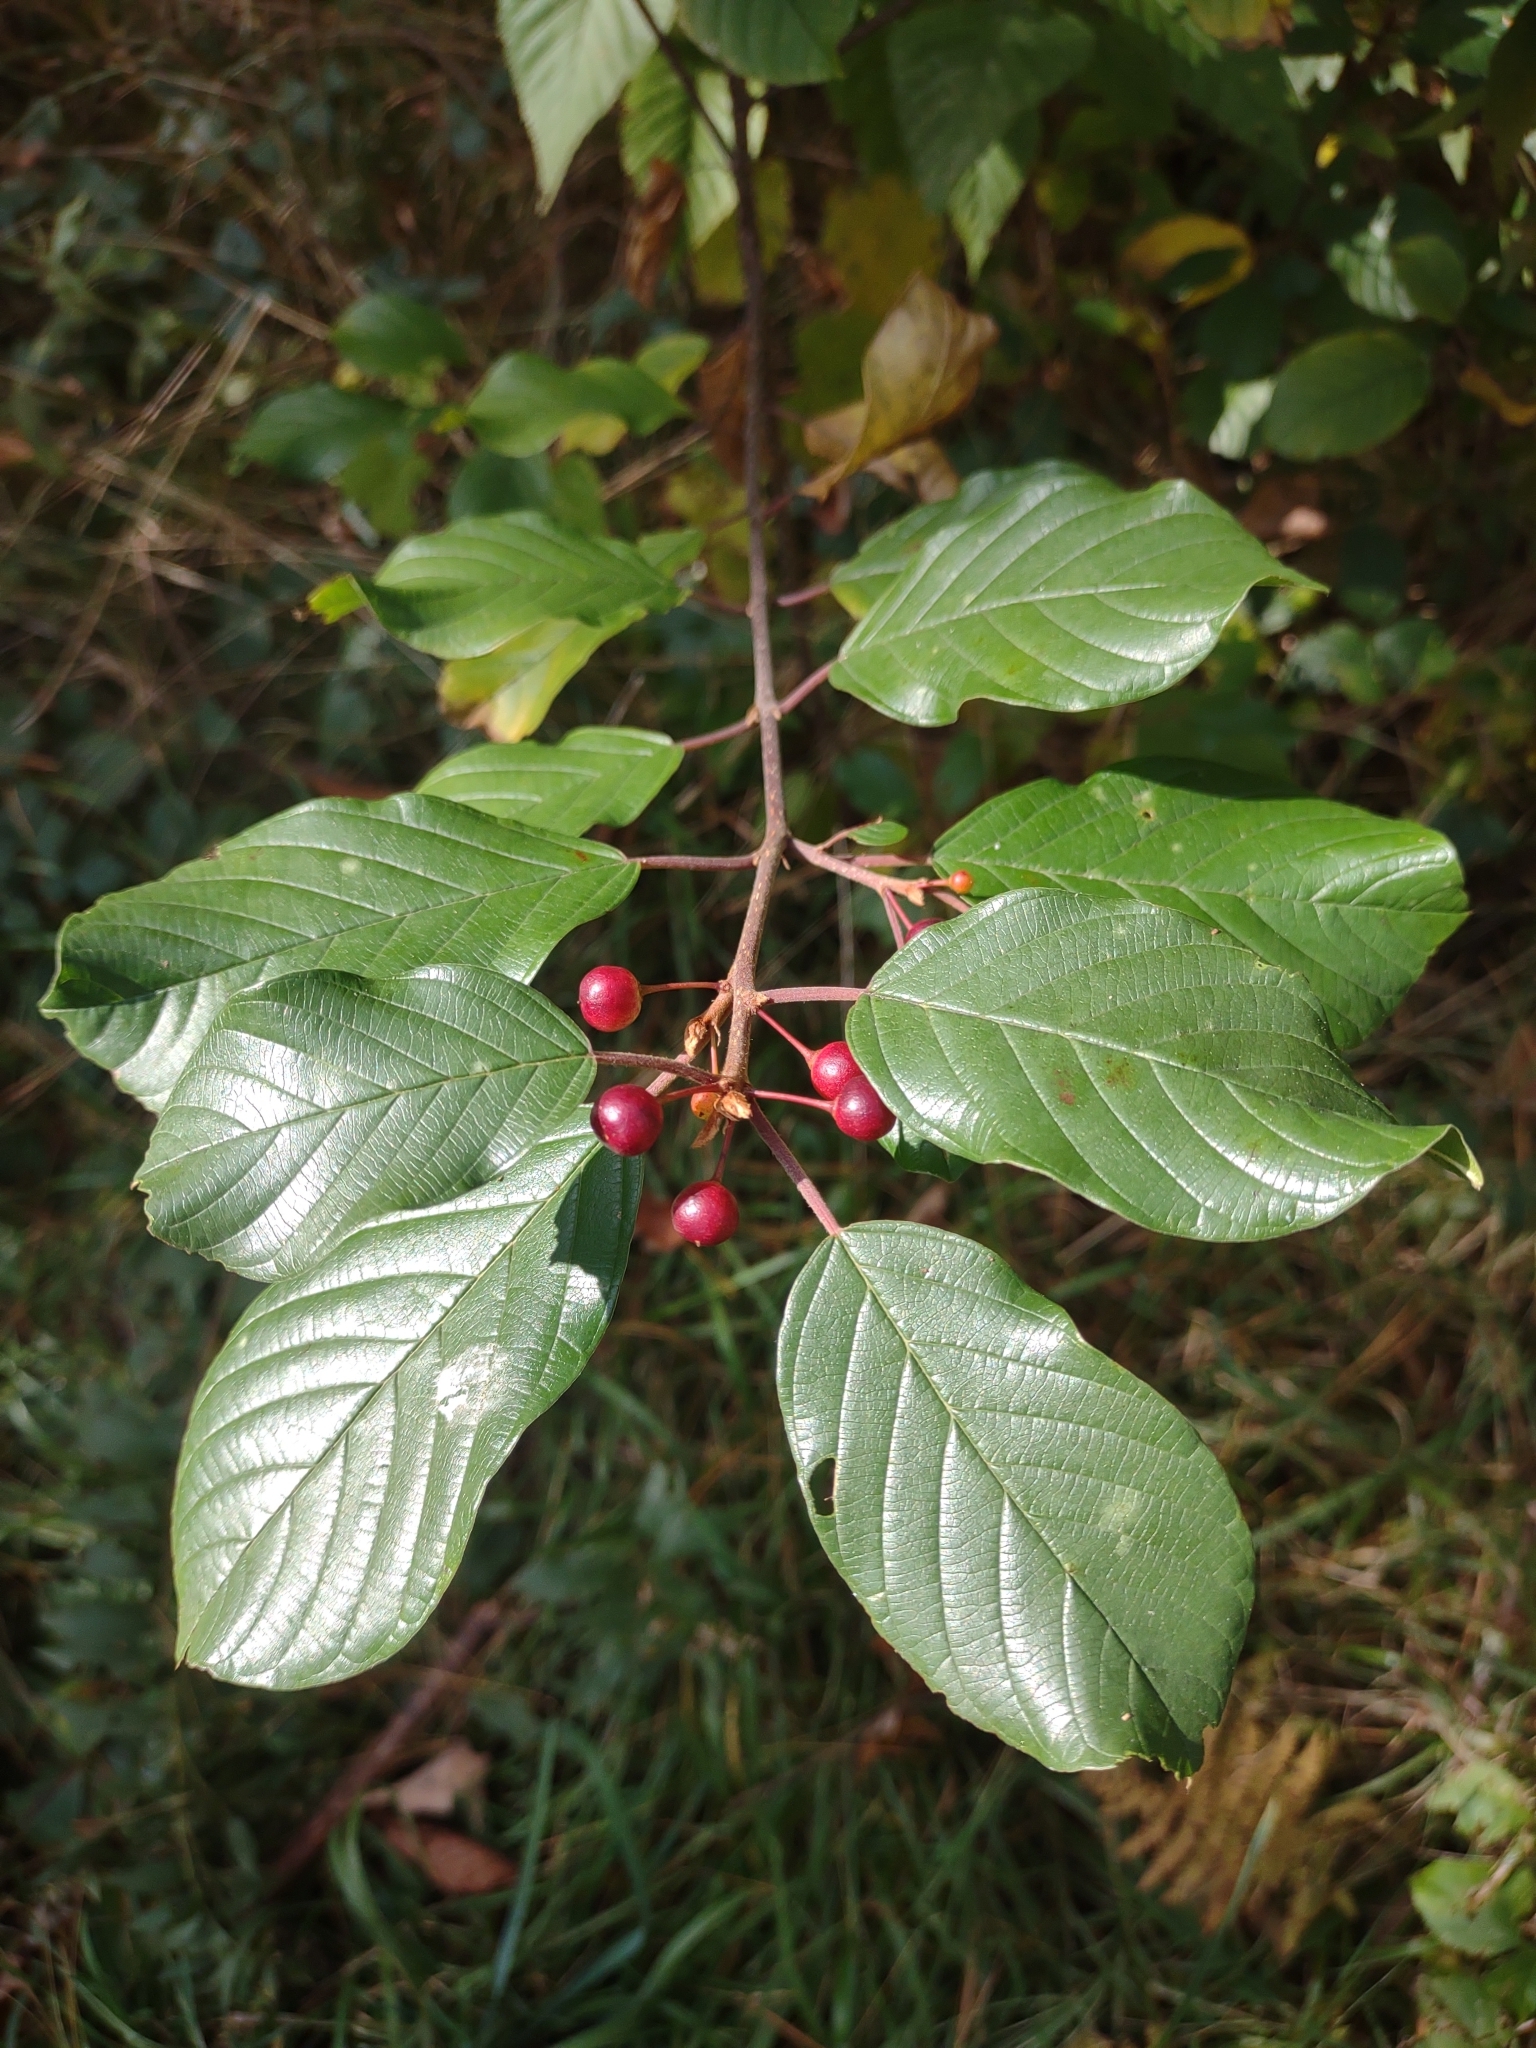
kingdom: Plantae
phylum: Tracheophyta
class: Magnoliopsida
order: Rosales
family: Rhamnaceae
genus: Frangula
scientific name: Frangula alnus
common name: Alder buckthorn
